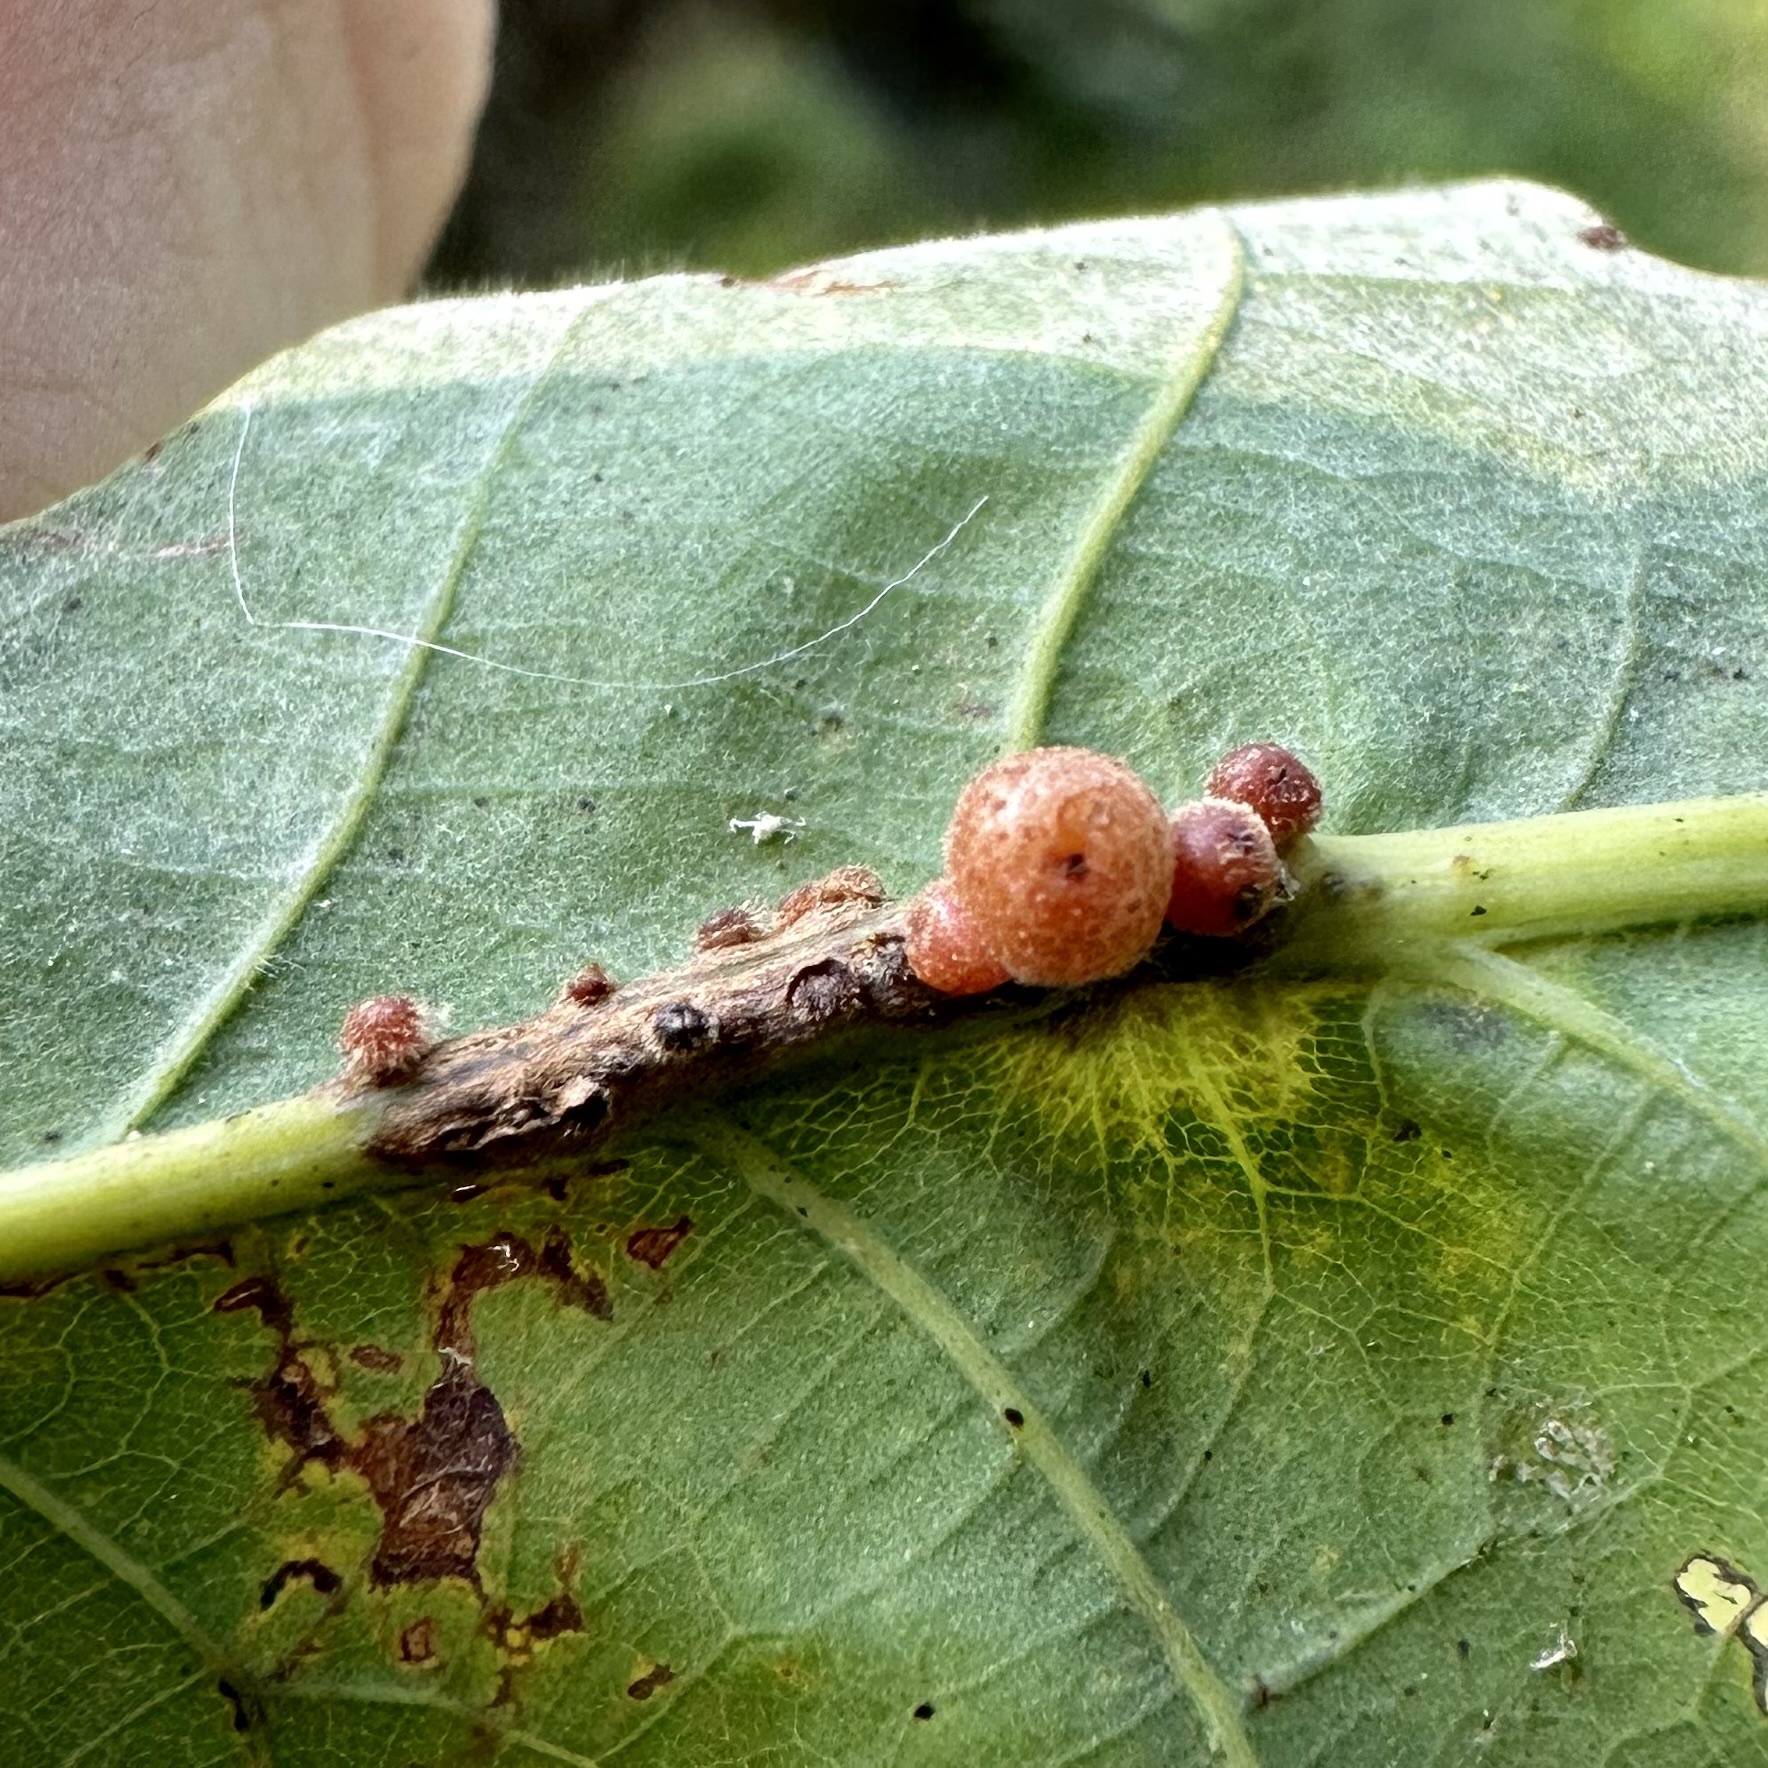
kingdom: Animalia
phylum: Arthropoda
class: Insecta
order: Hymenoptera
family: Cynipidae
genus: Andricus
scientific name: Andricus
